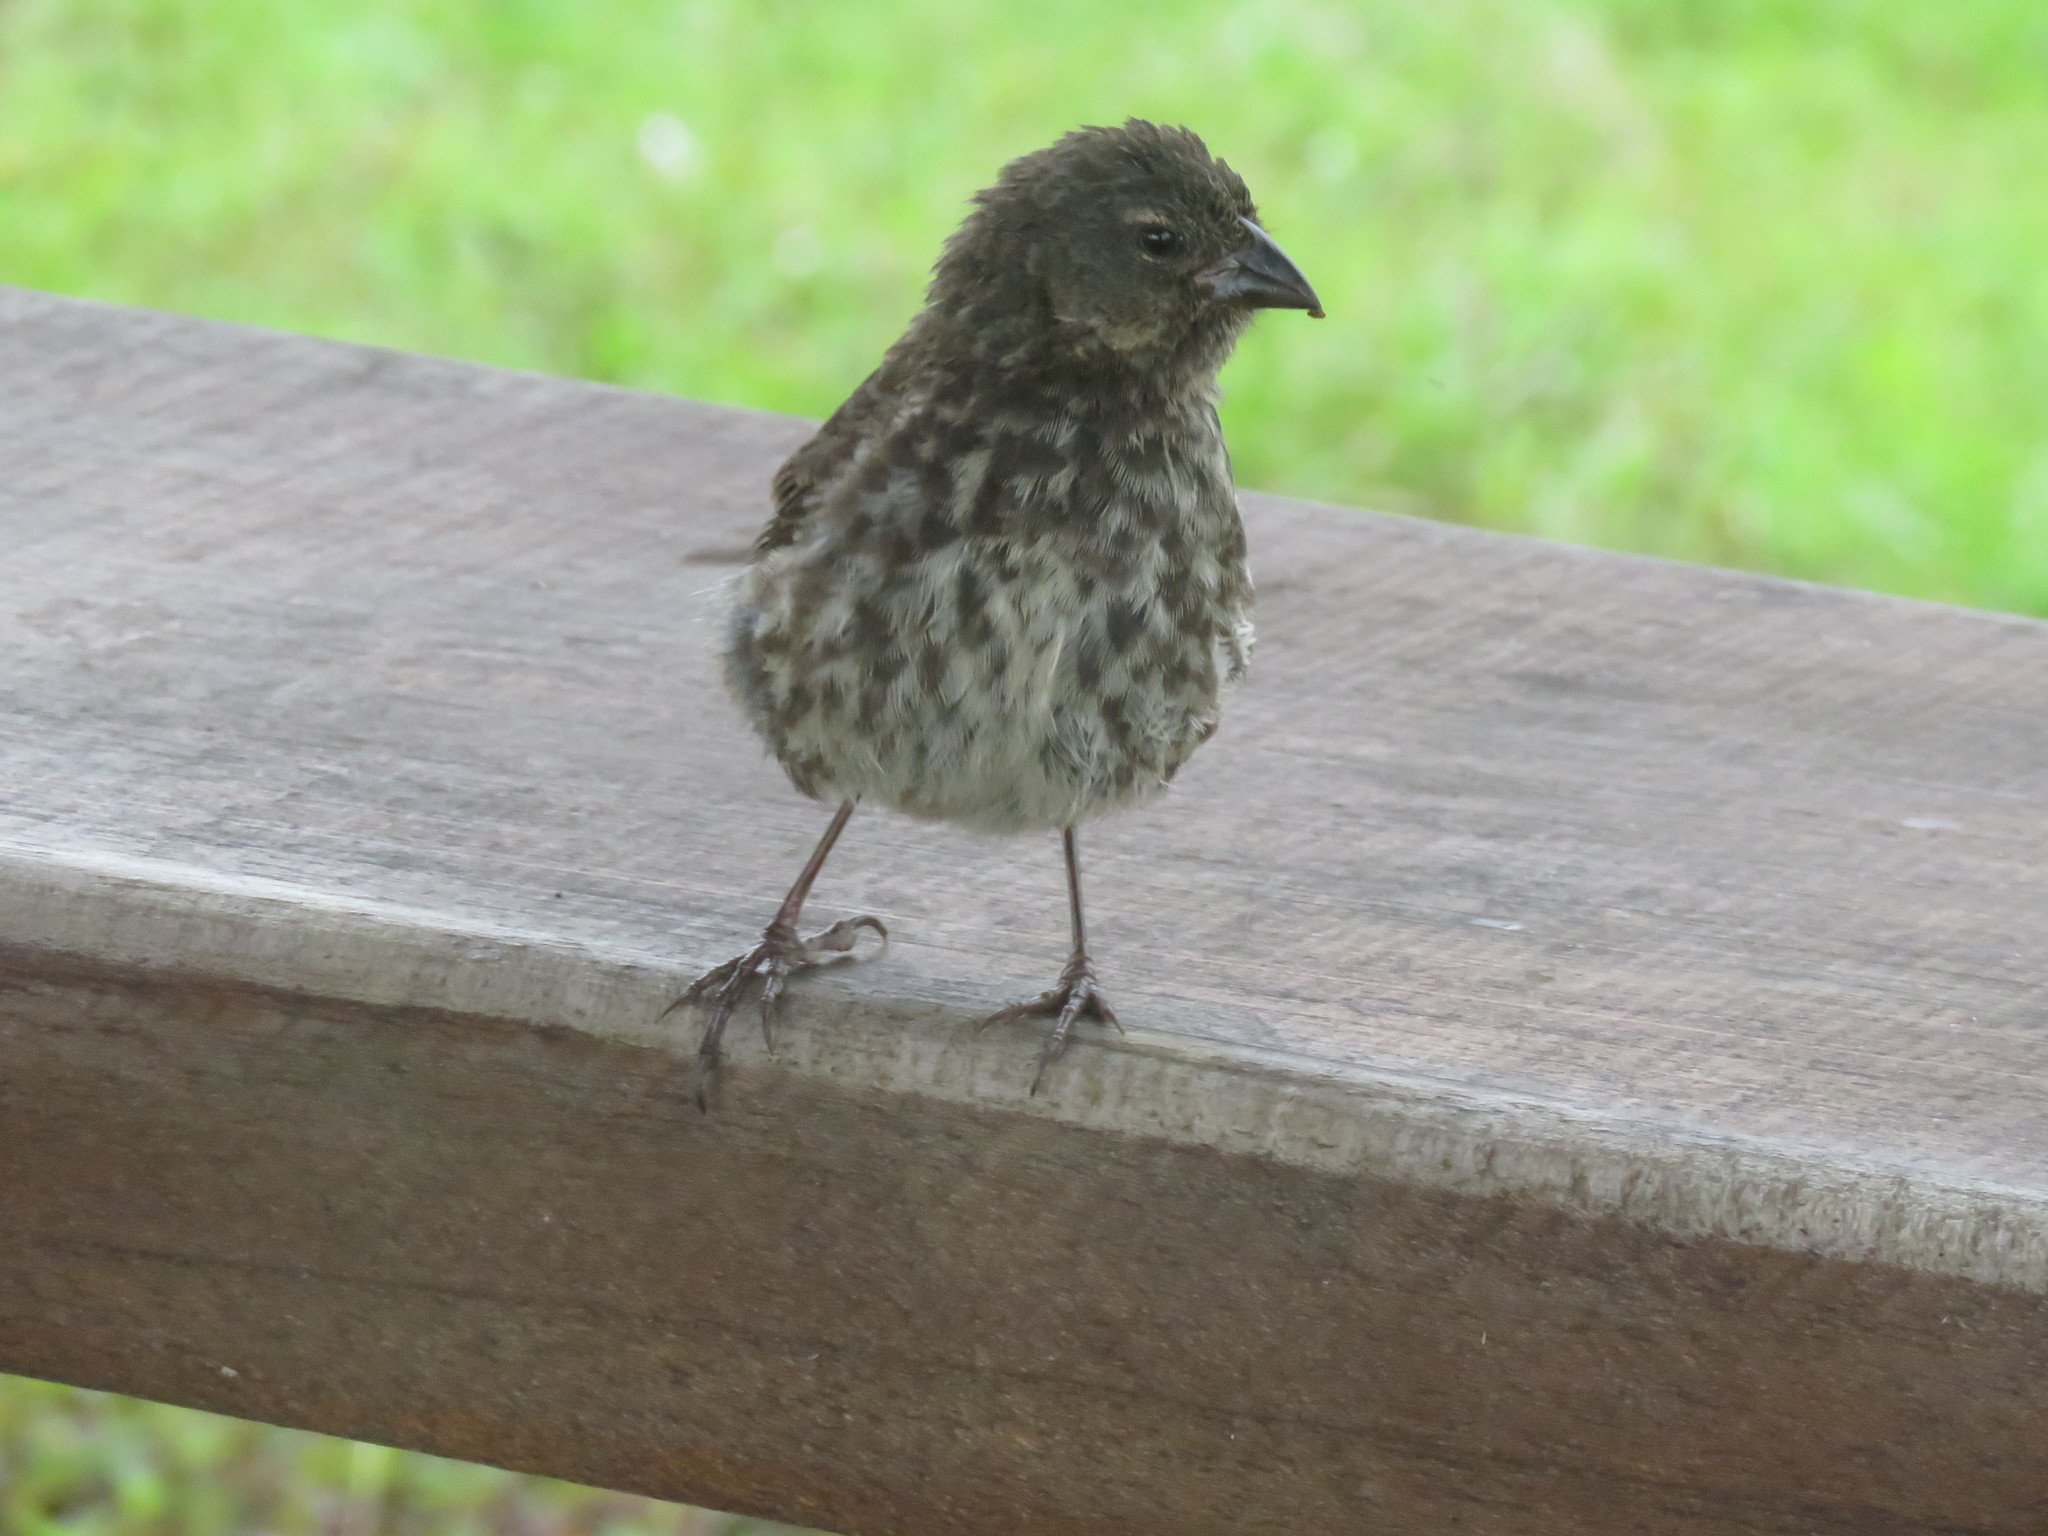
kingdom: Animalia
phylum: Chordata
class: Aves
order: Passeriformes
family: Thraupidae
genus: Geospiza
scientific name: Geospiza fuliginosa
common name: Small ground finch
